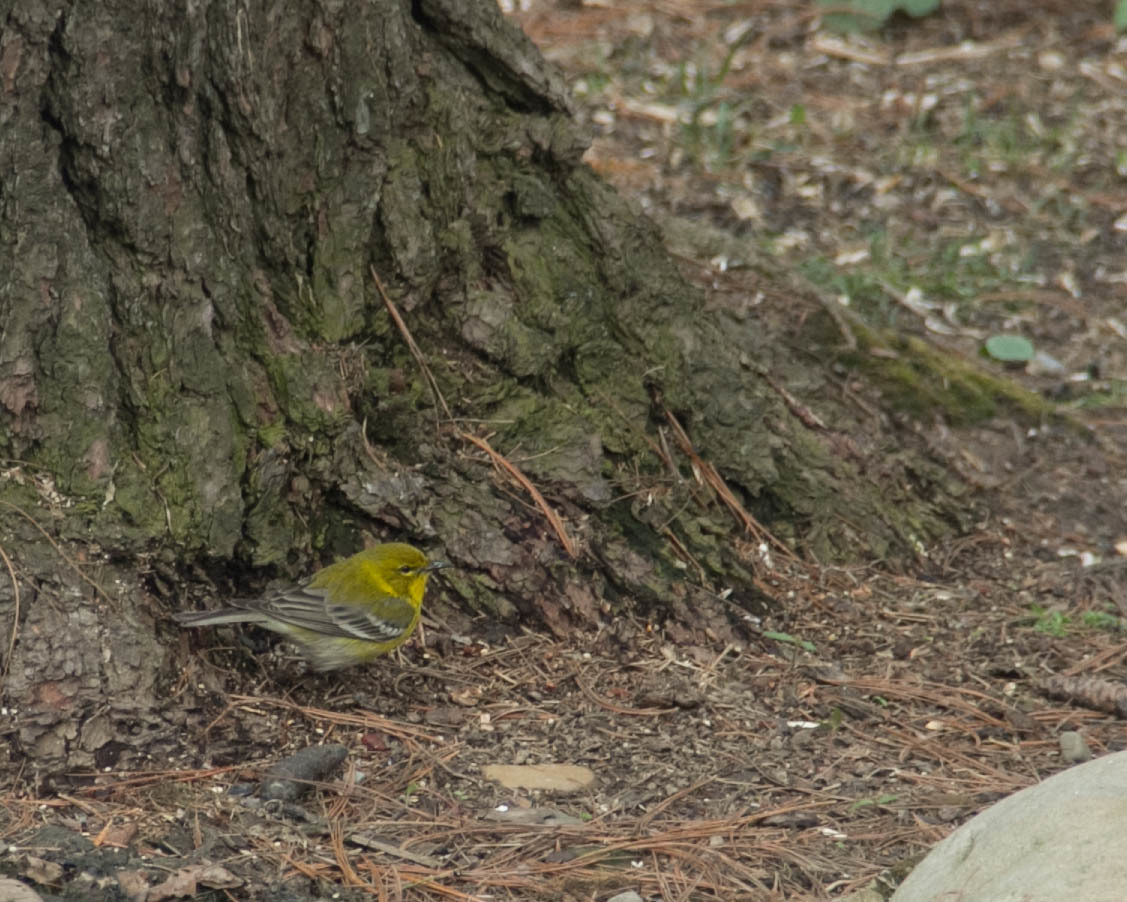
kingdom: Animalia
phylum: Chordata
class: Aves
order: Passeriformes
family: Parulidae
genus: Setophaga
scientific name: Setophaga pinus
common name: Pine warbler
